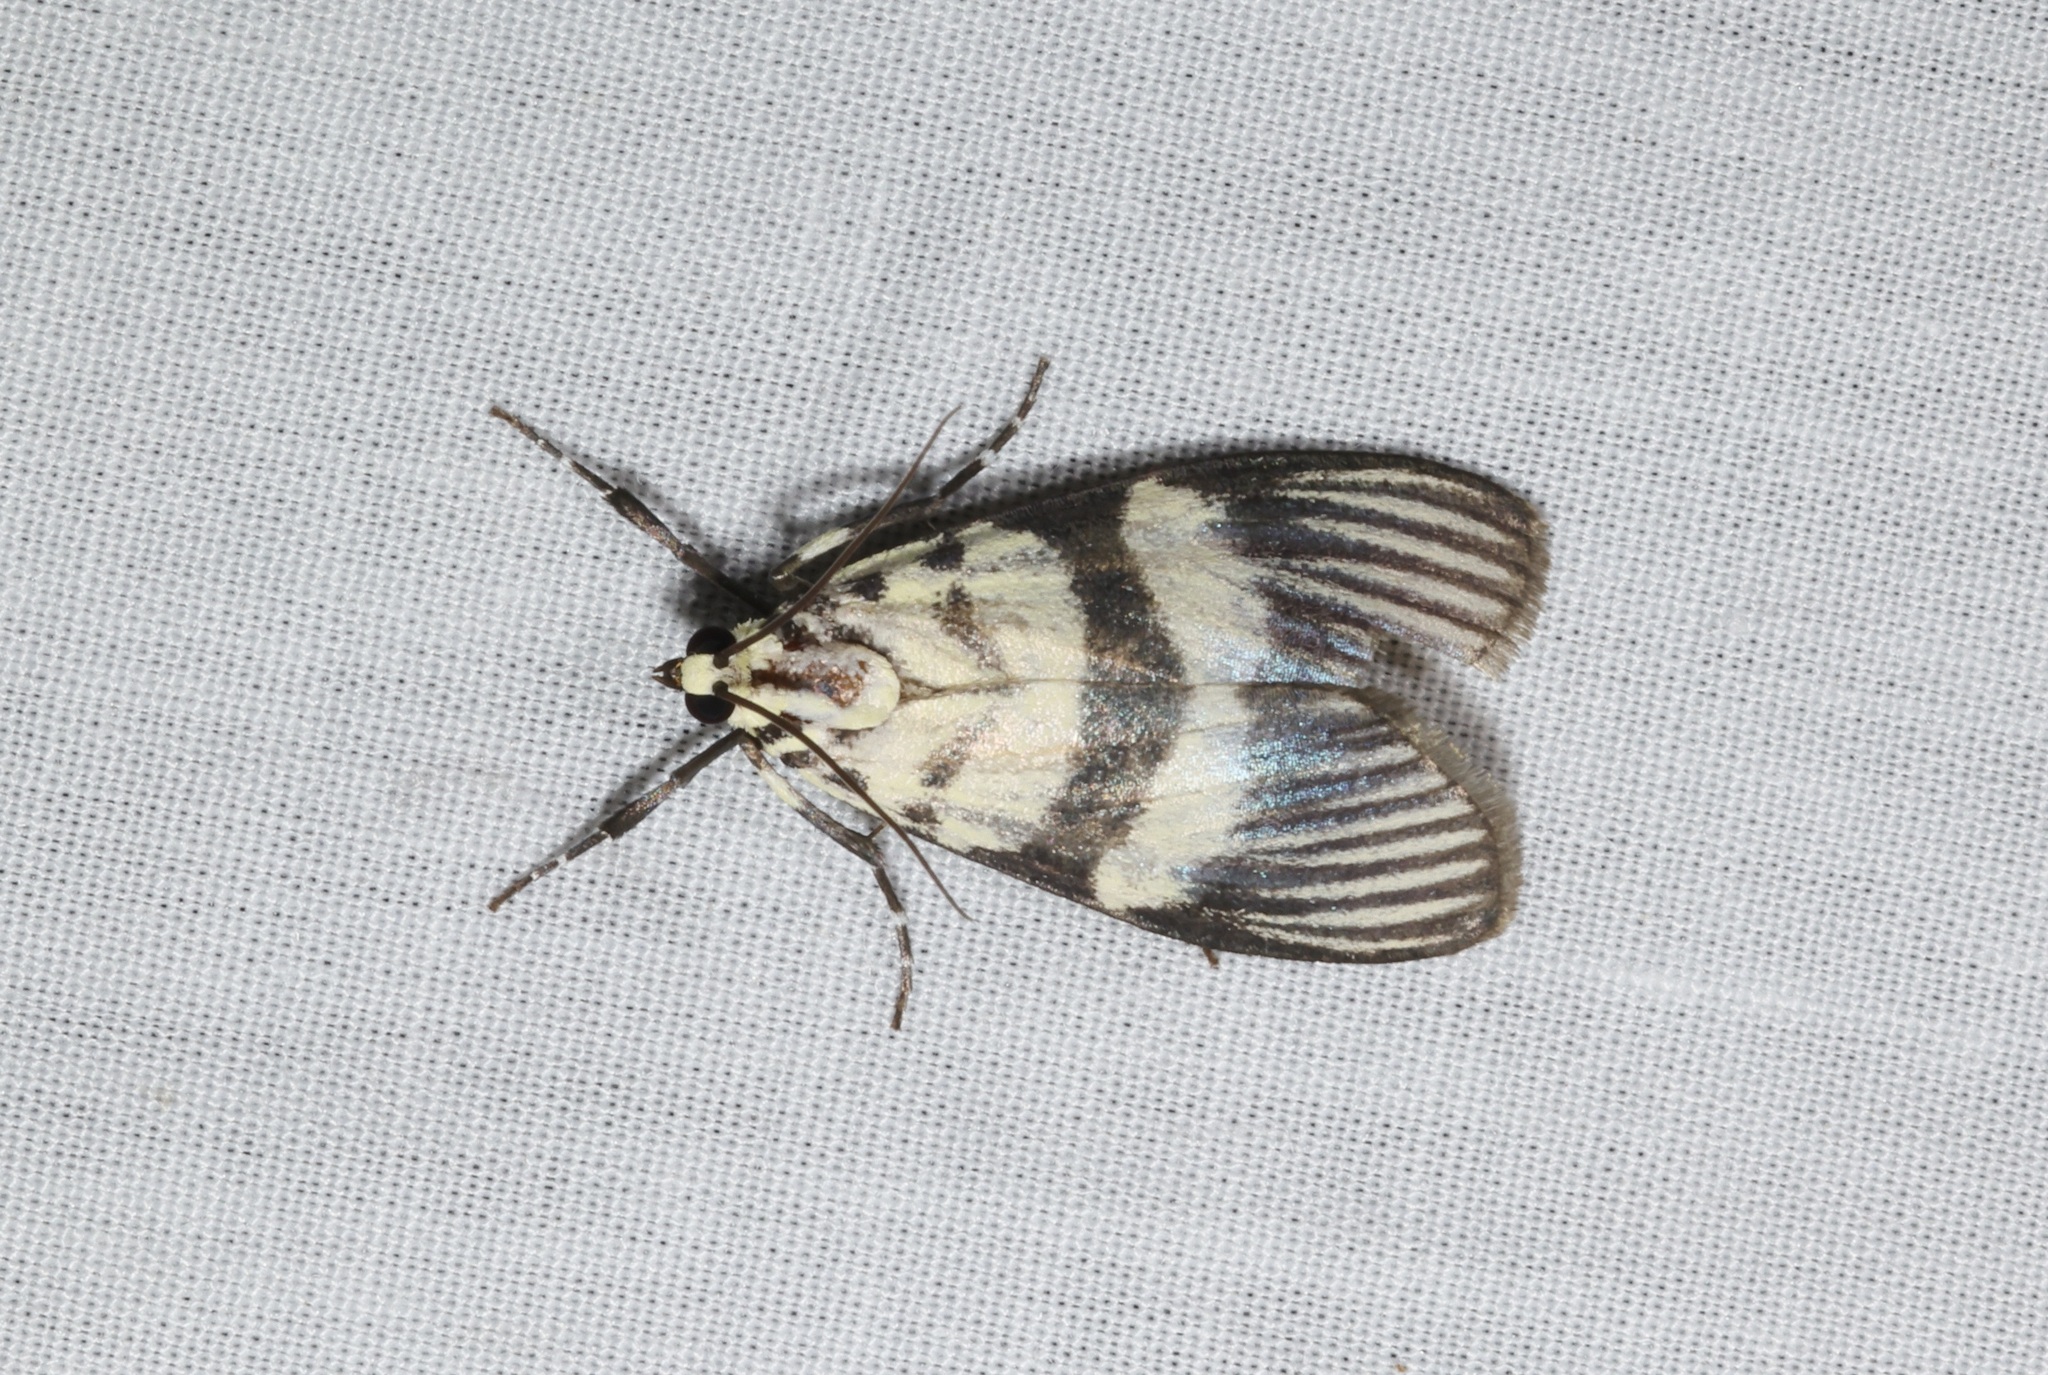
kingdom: Animalia
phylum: Arthropoda
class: Insecta
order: Lepidoptera
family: Crambidae
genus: Heortia
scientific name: Heortia vitessoides
